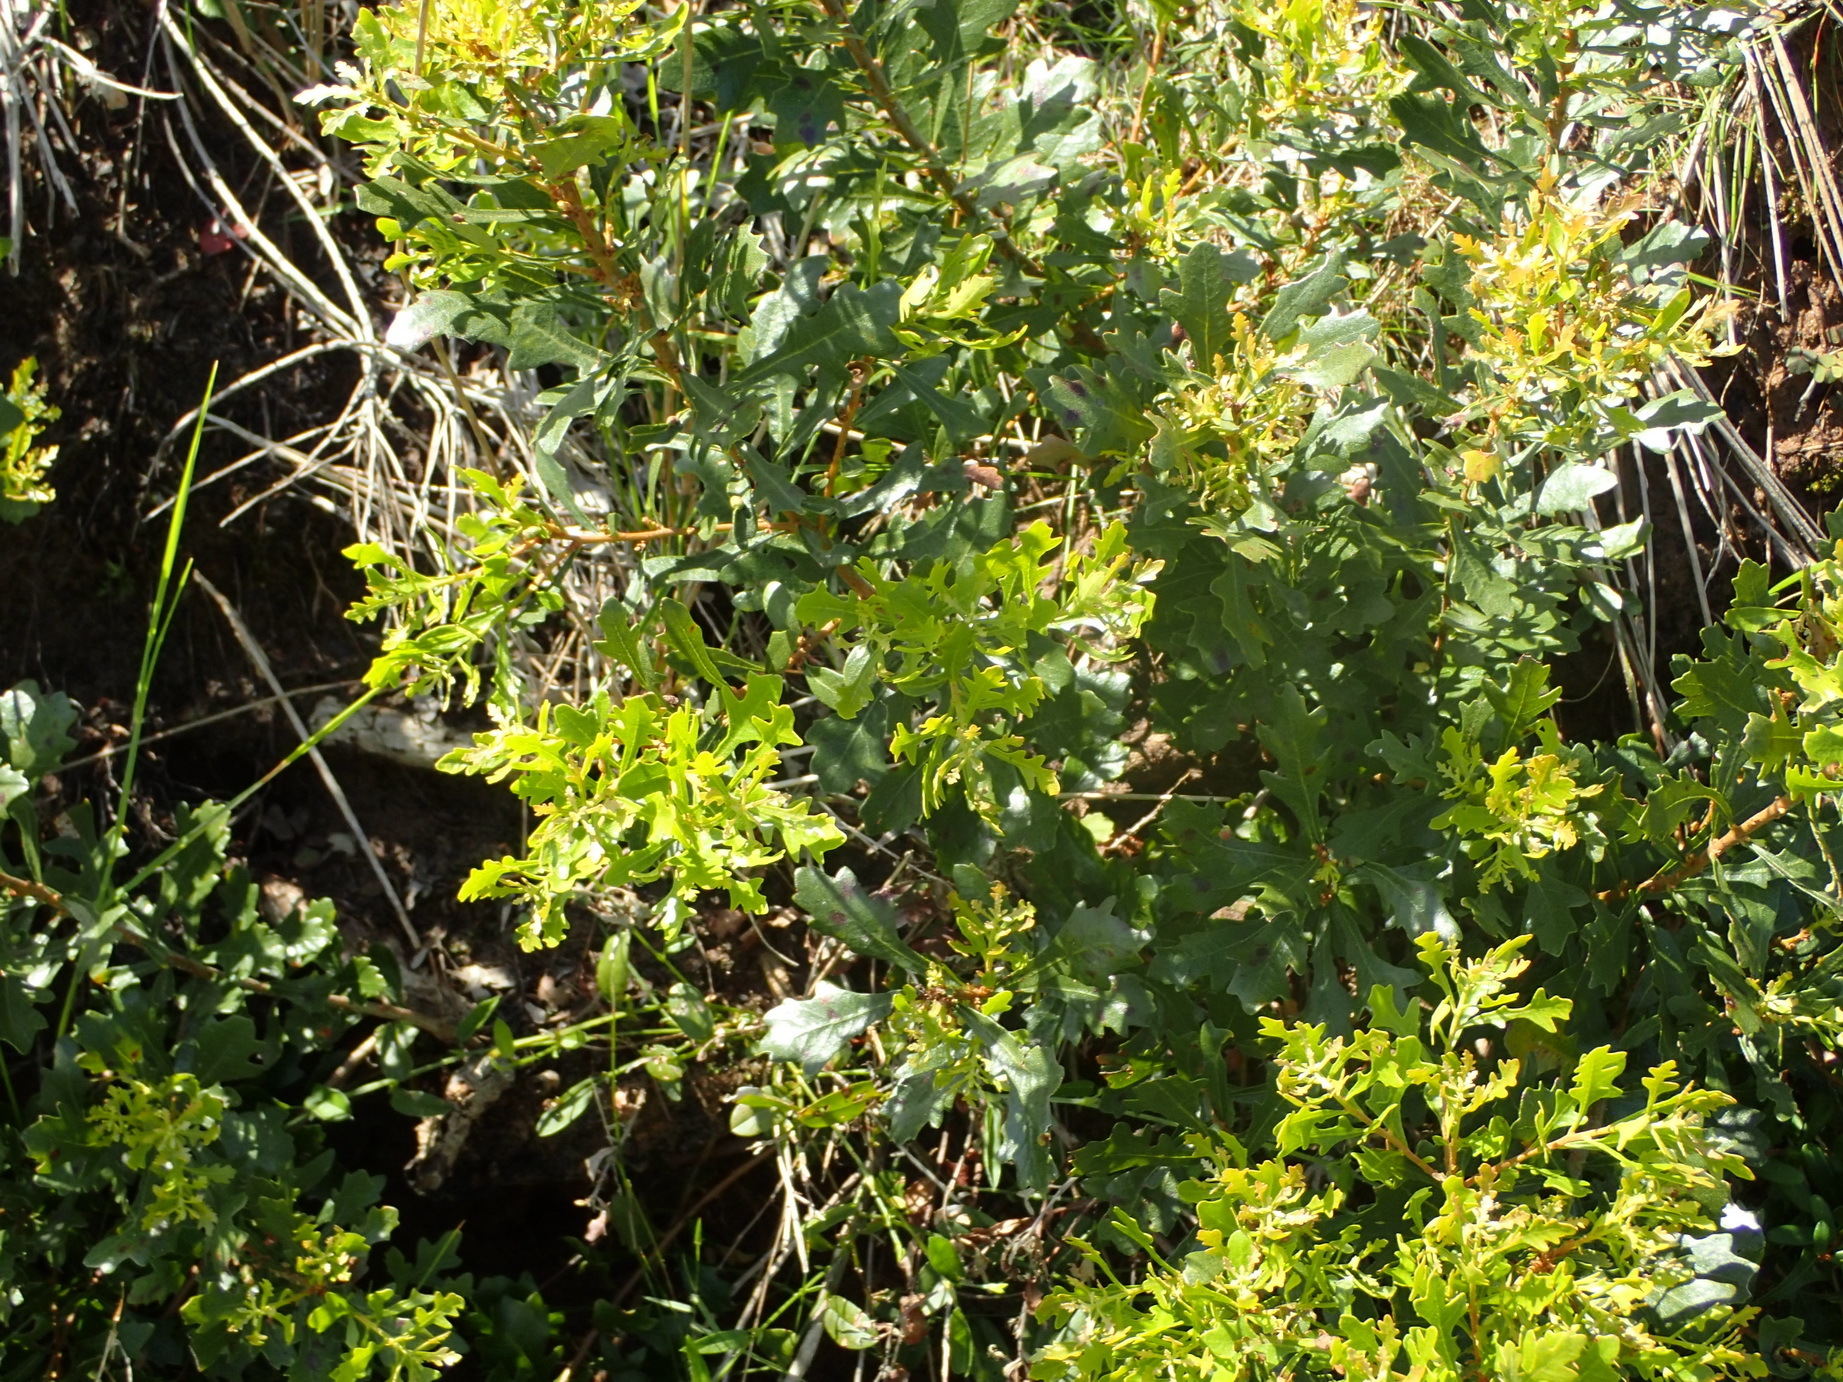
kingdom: Plantae
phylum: Tracheophyta
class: Magnoliopsida
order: Fagales
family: Myricaceae
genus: Morella
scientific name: Morella quercifolia
